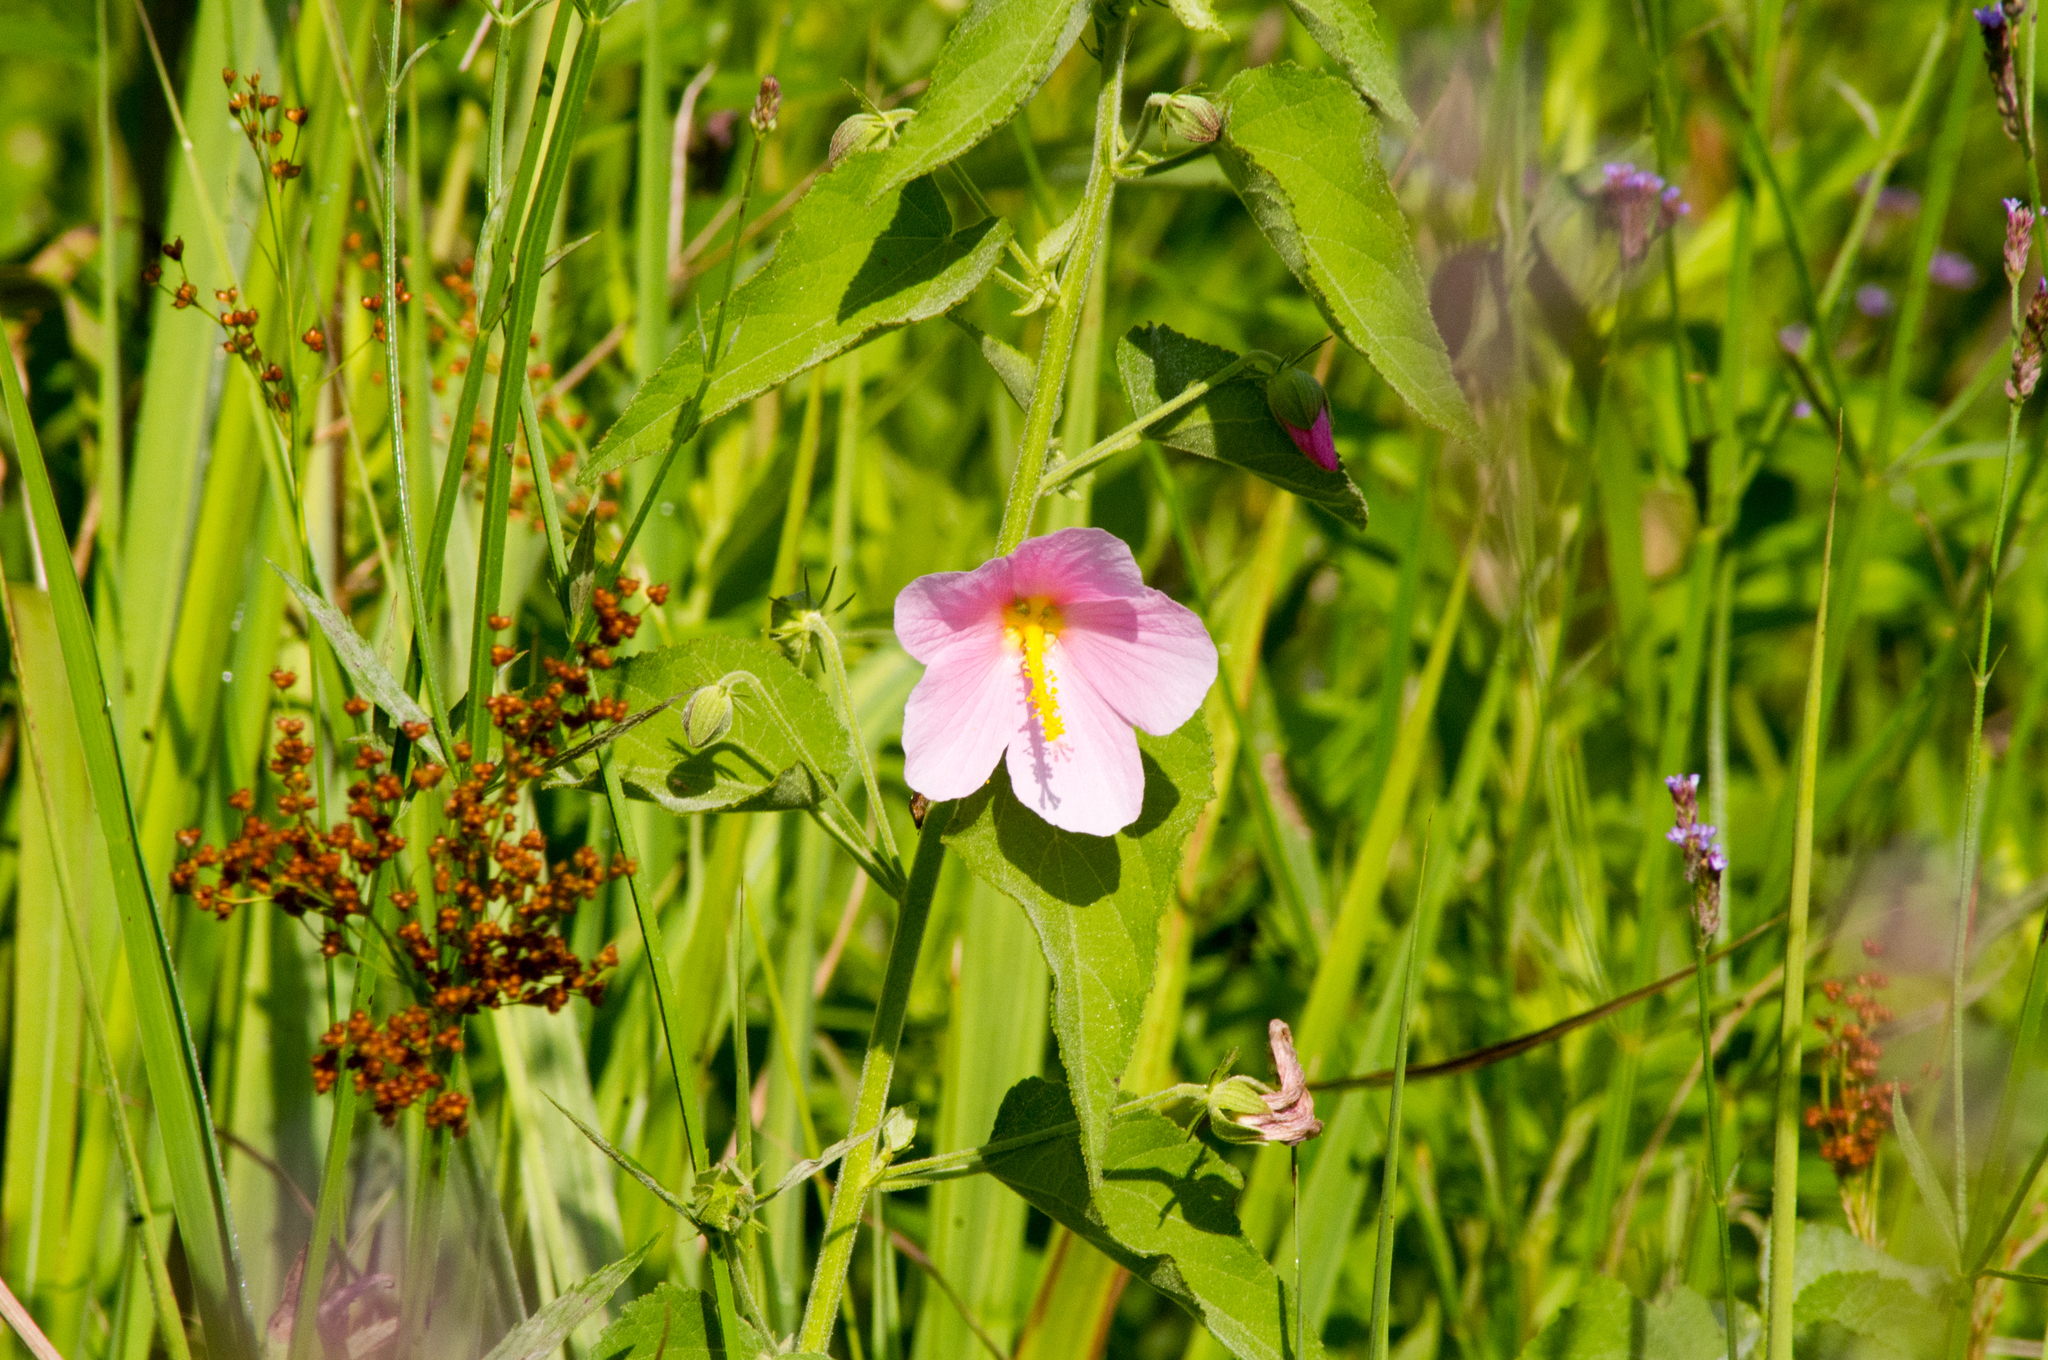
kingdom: Plantae
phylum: Tracheophyta
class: Magnoliopsida
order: Malvales
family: Malvaceae
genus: Kosteletzkya
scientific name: Kosteletzkya pentacarpos
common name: Virginia saltmarsh mallow
